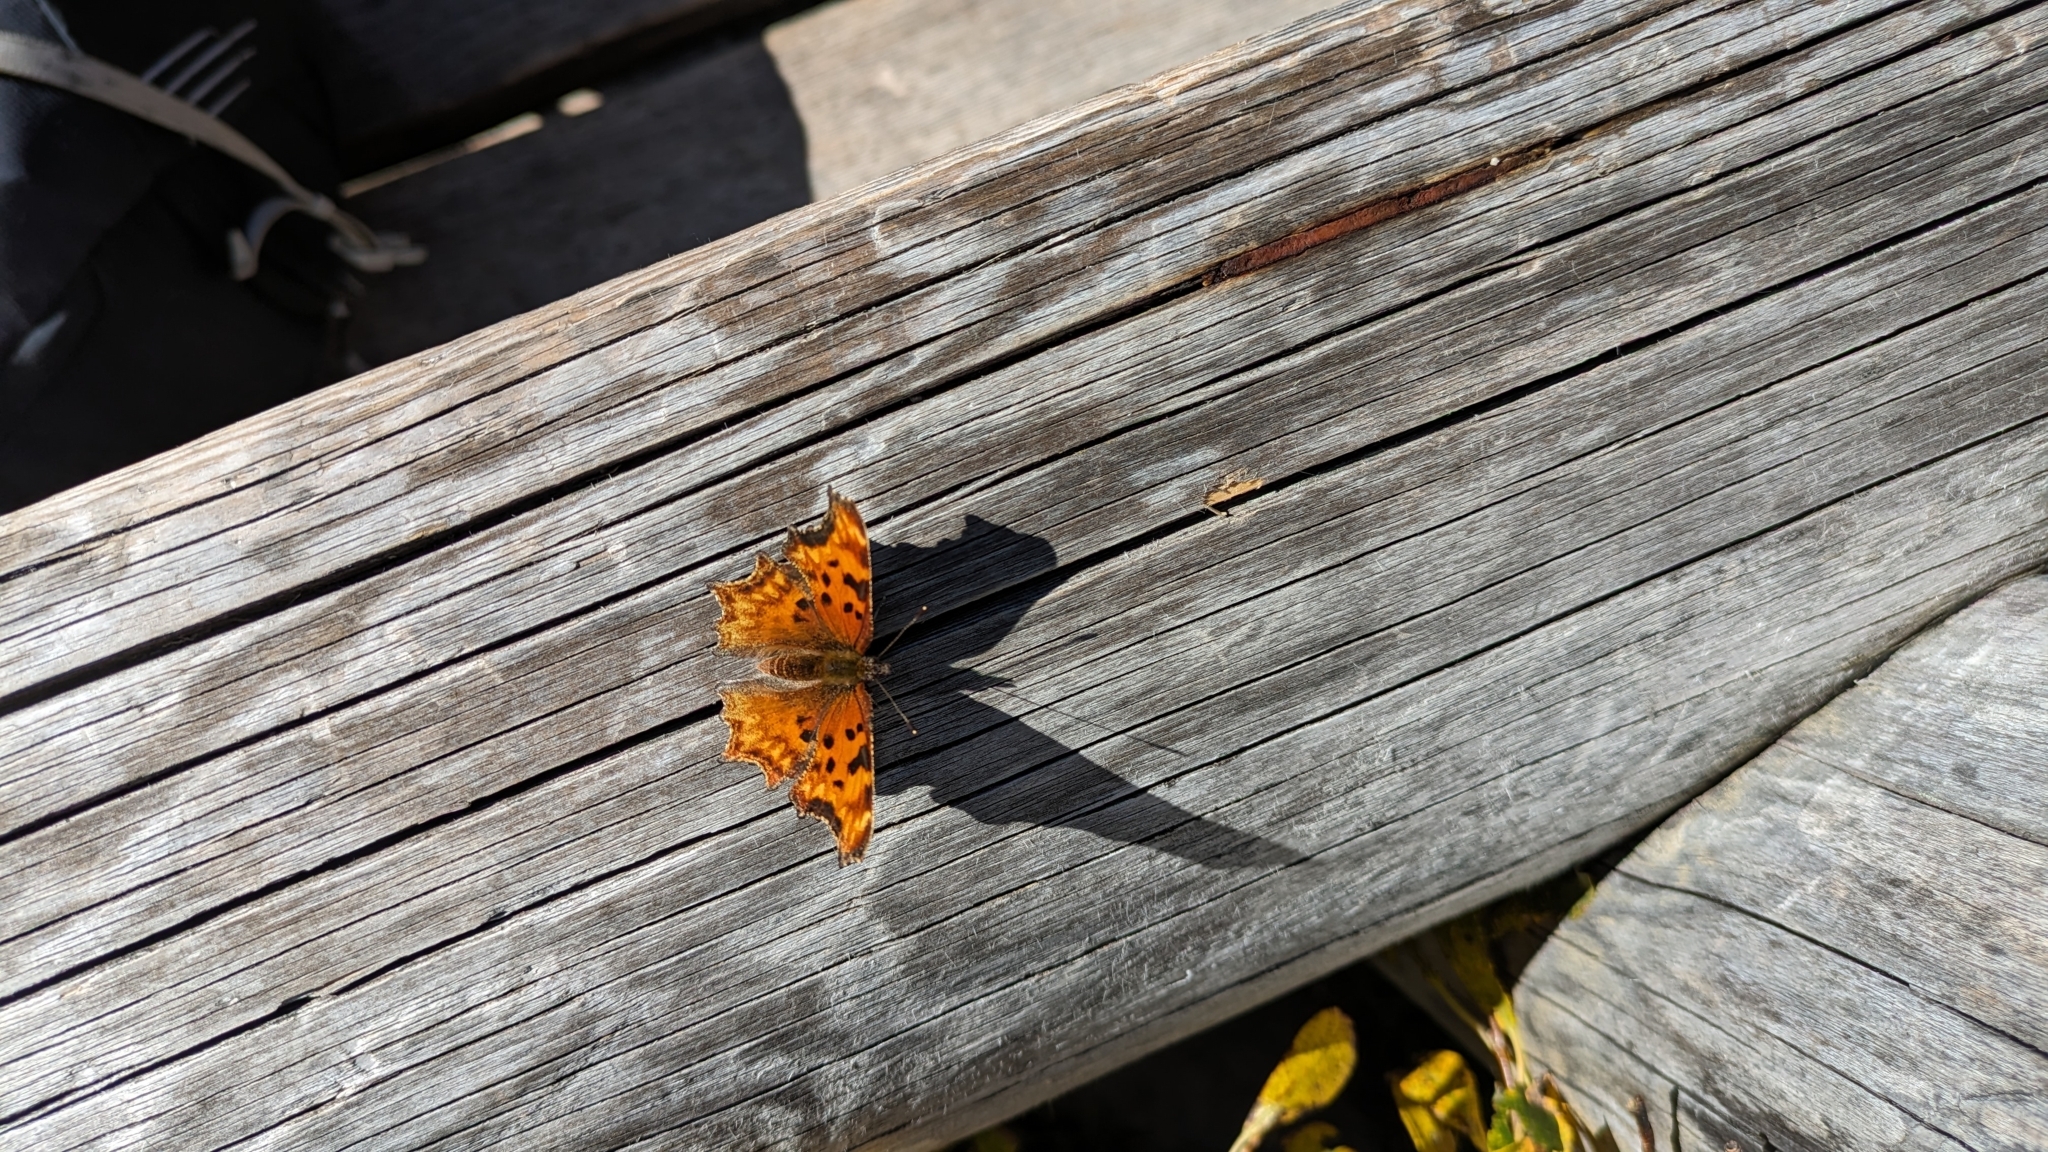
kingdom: Animalia
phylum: Arthropoda
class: Insecta
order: Lepidoptera
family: Nymphalidae
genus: Polygonia
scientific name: Polygonia gracilis
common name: Hoary comma
